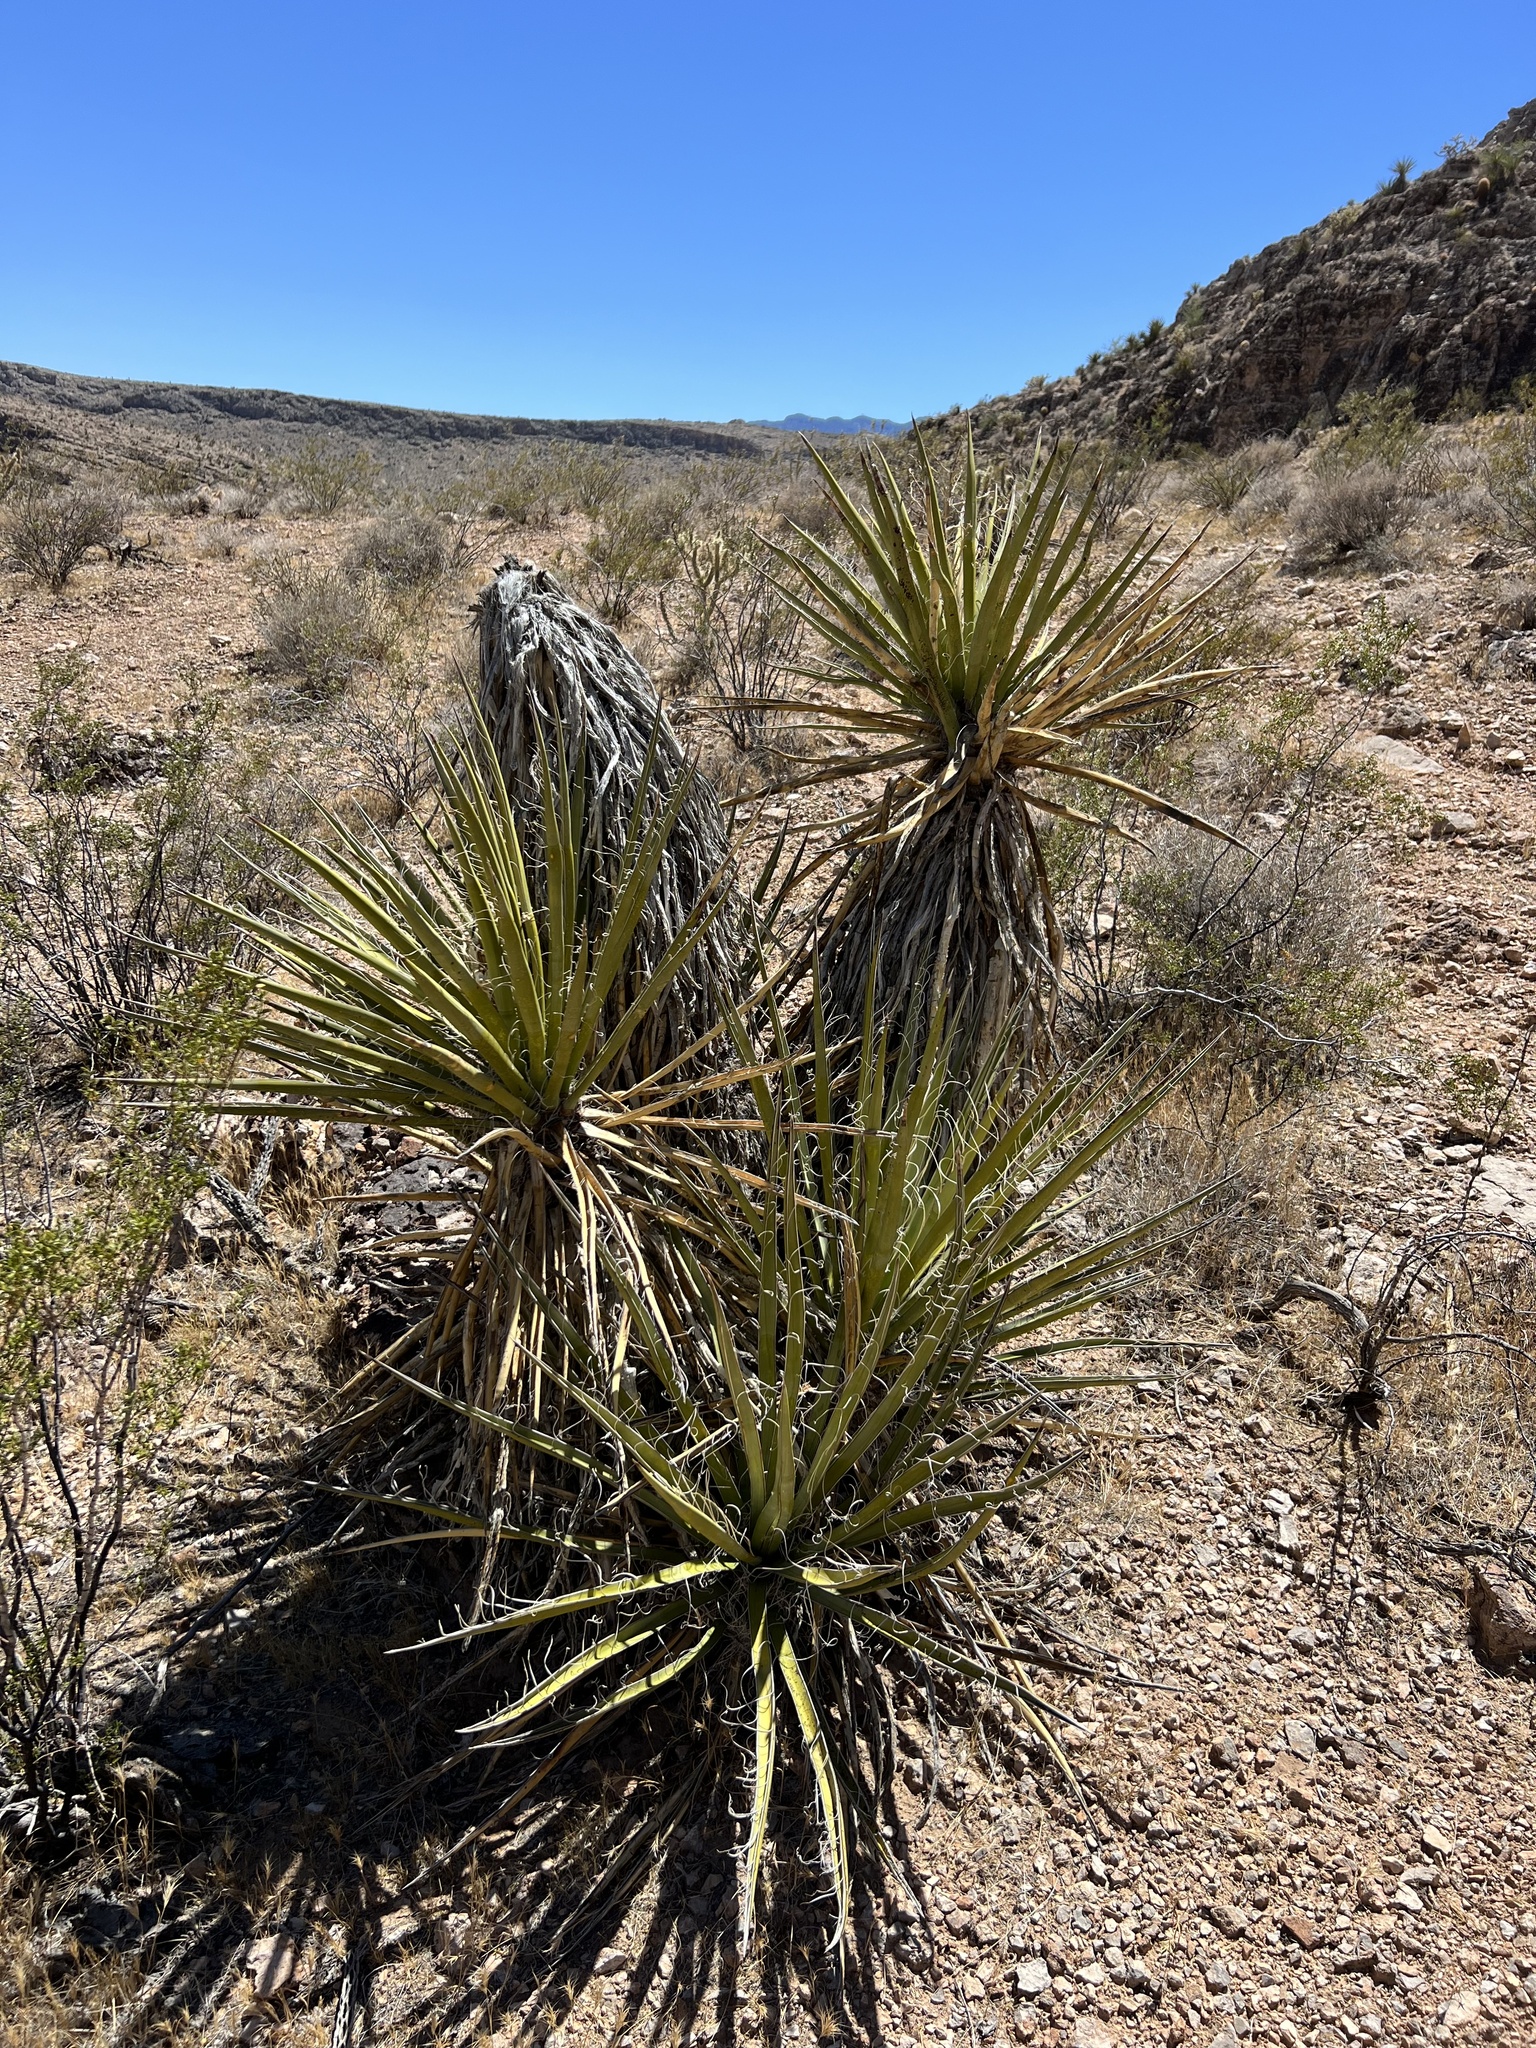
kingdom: Plantae
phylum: Tracheophyta
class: Liliopsida
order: Asparagales
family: Asparagaceae
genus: Yucca
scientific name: Yucca schidigera
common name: Mojave yucca
